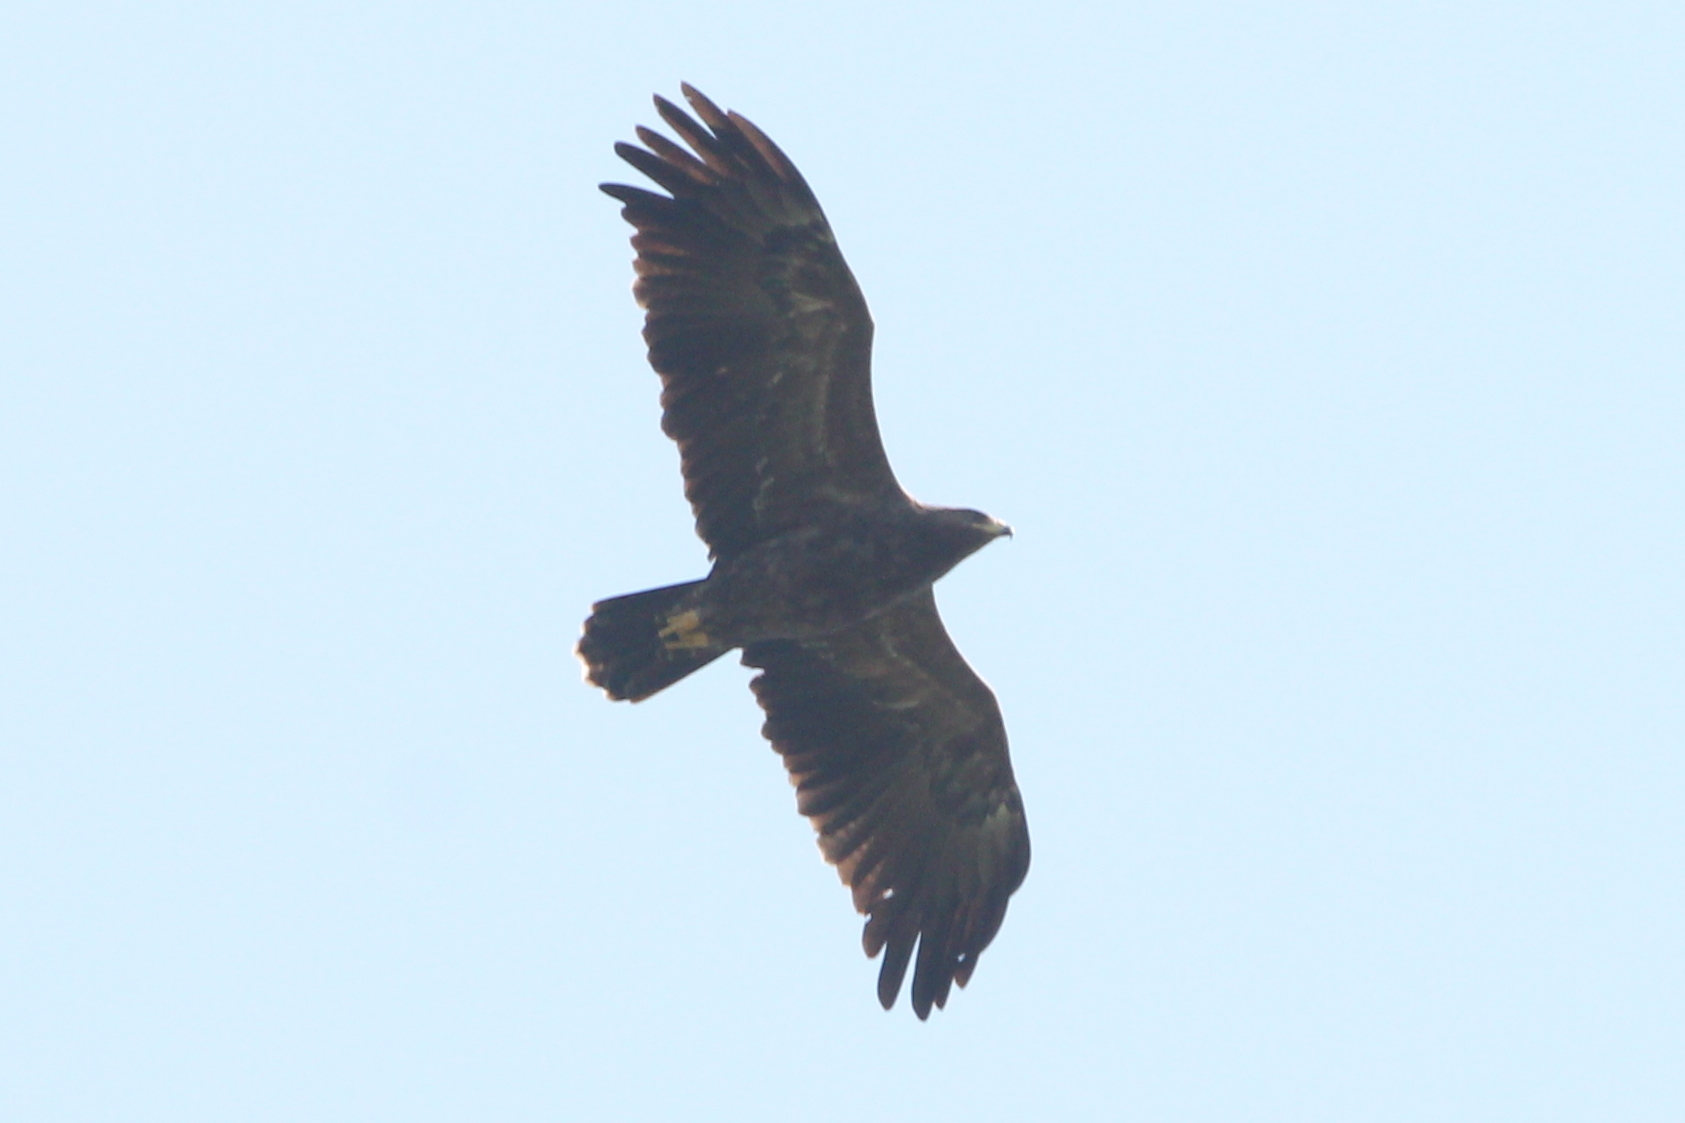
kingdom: Animalia
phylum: Chordata
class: Aves
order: Accipitriformes
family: Accipitridae
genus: Aquila
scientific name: Aquila pomarina
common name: Lesser spotted eagle
